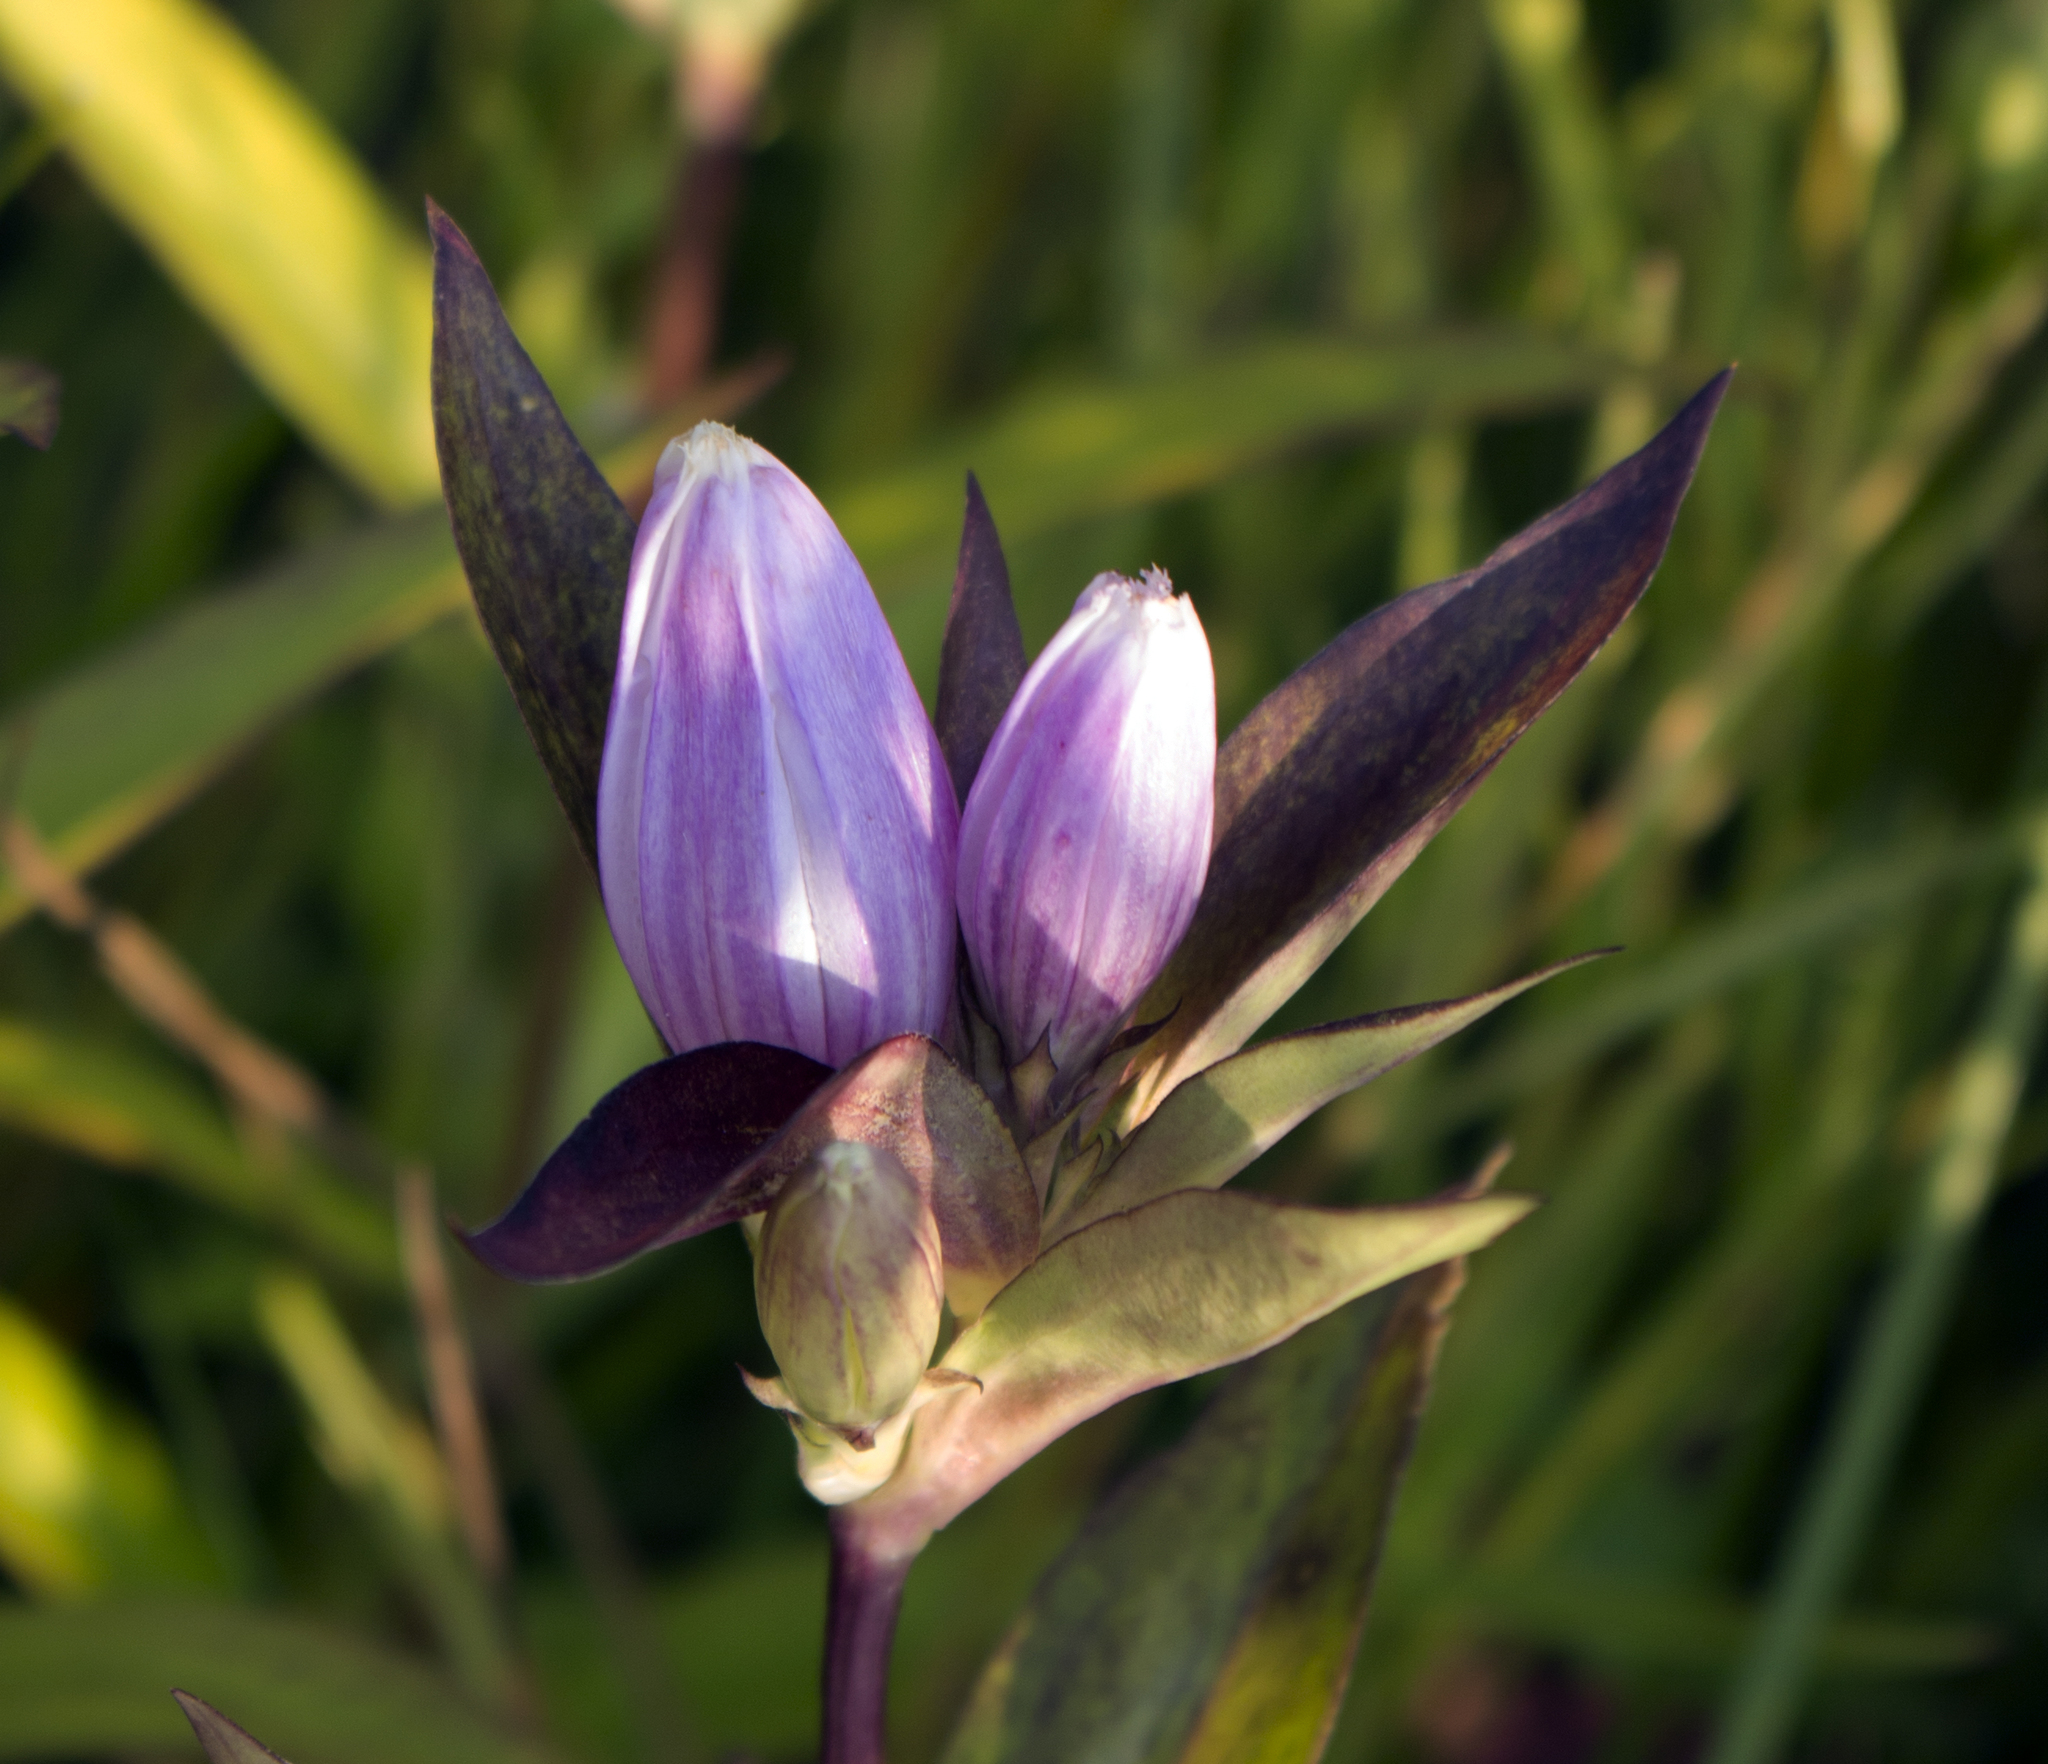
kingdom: Plantae
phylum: Tracheophyta
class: Magnoliopsida
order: Gentianales
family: Gentianaceae
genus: Gentiana
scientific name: Gentiana andrewsii
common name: Bottle gentian
